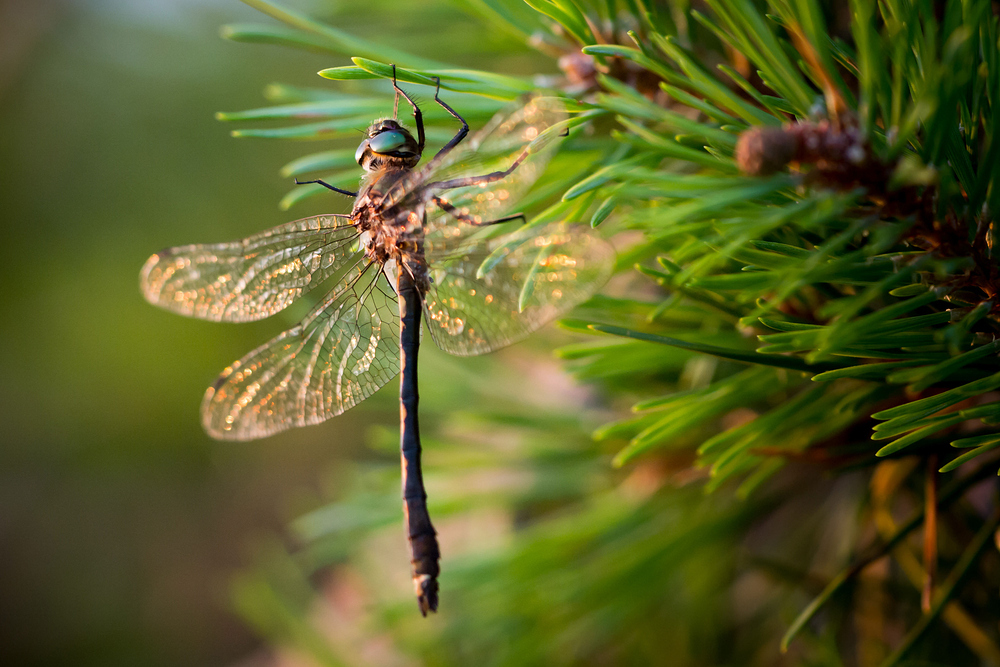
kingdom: Animalia
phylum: Arthropoda
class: Insecta
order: Odonata
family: Corduliidae
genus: Oxygastra
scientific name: Oxygastra curtisii
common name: Orange-spotted emerald
